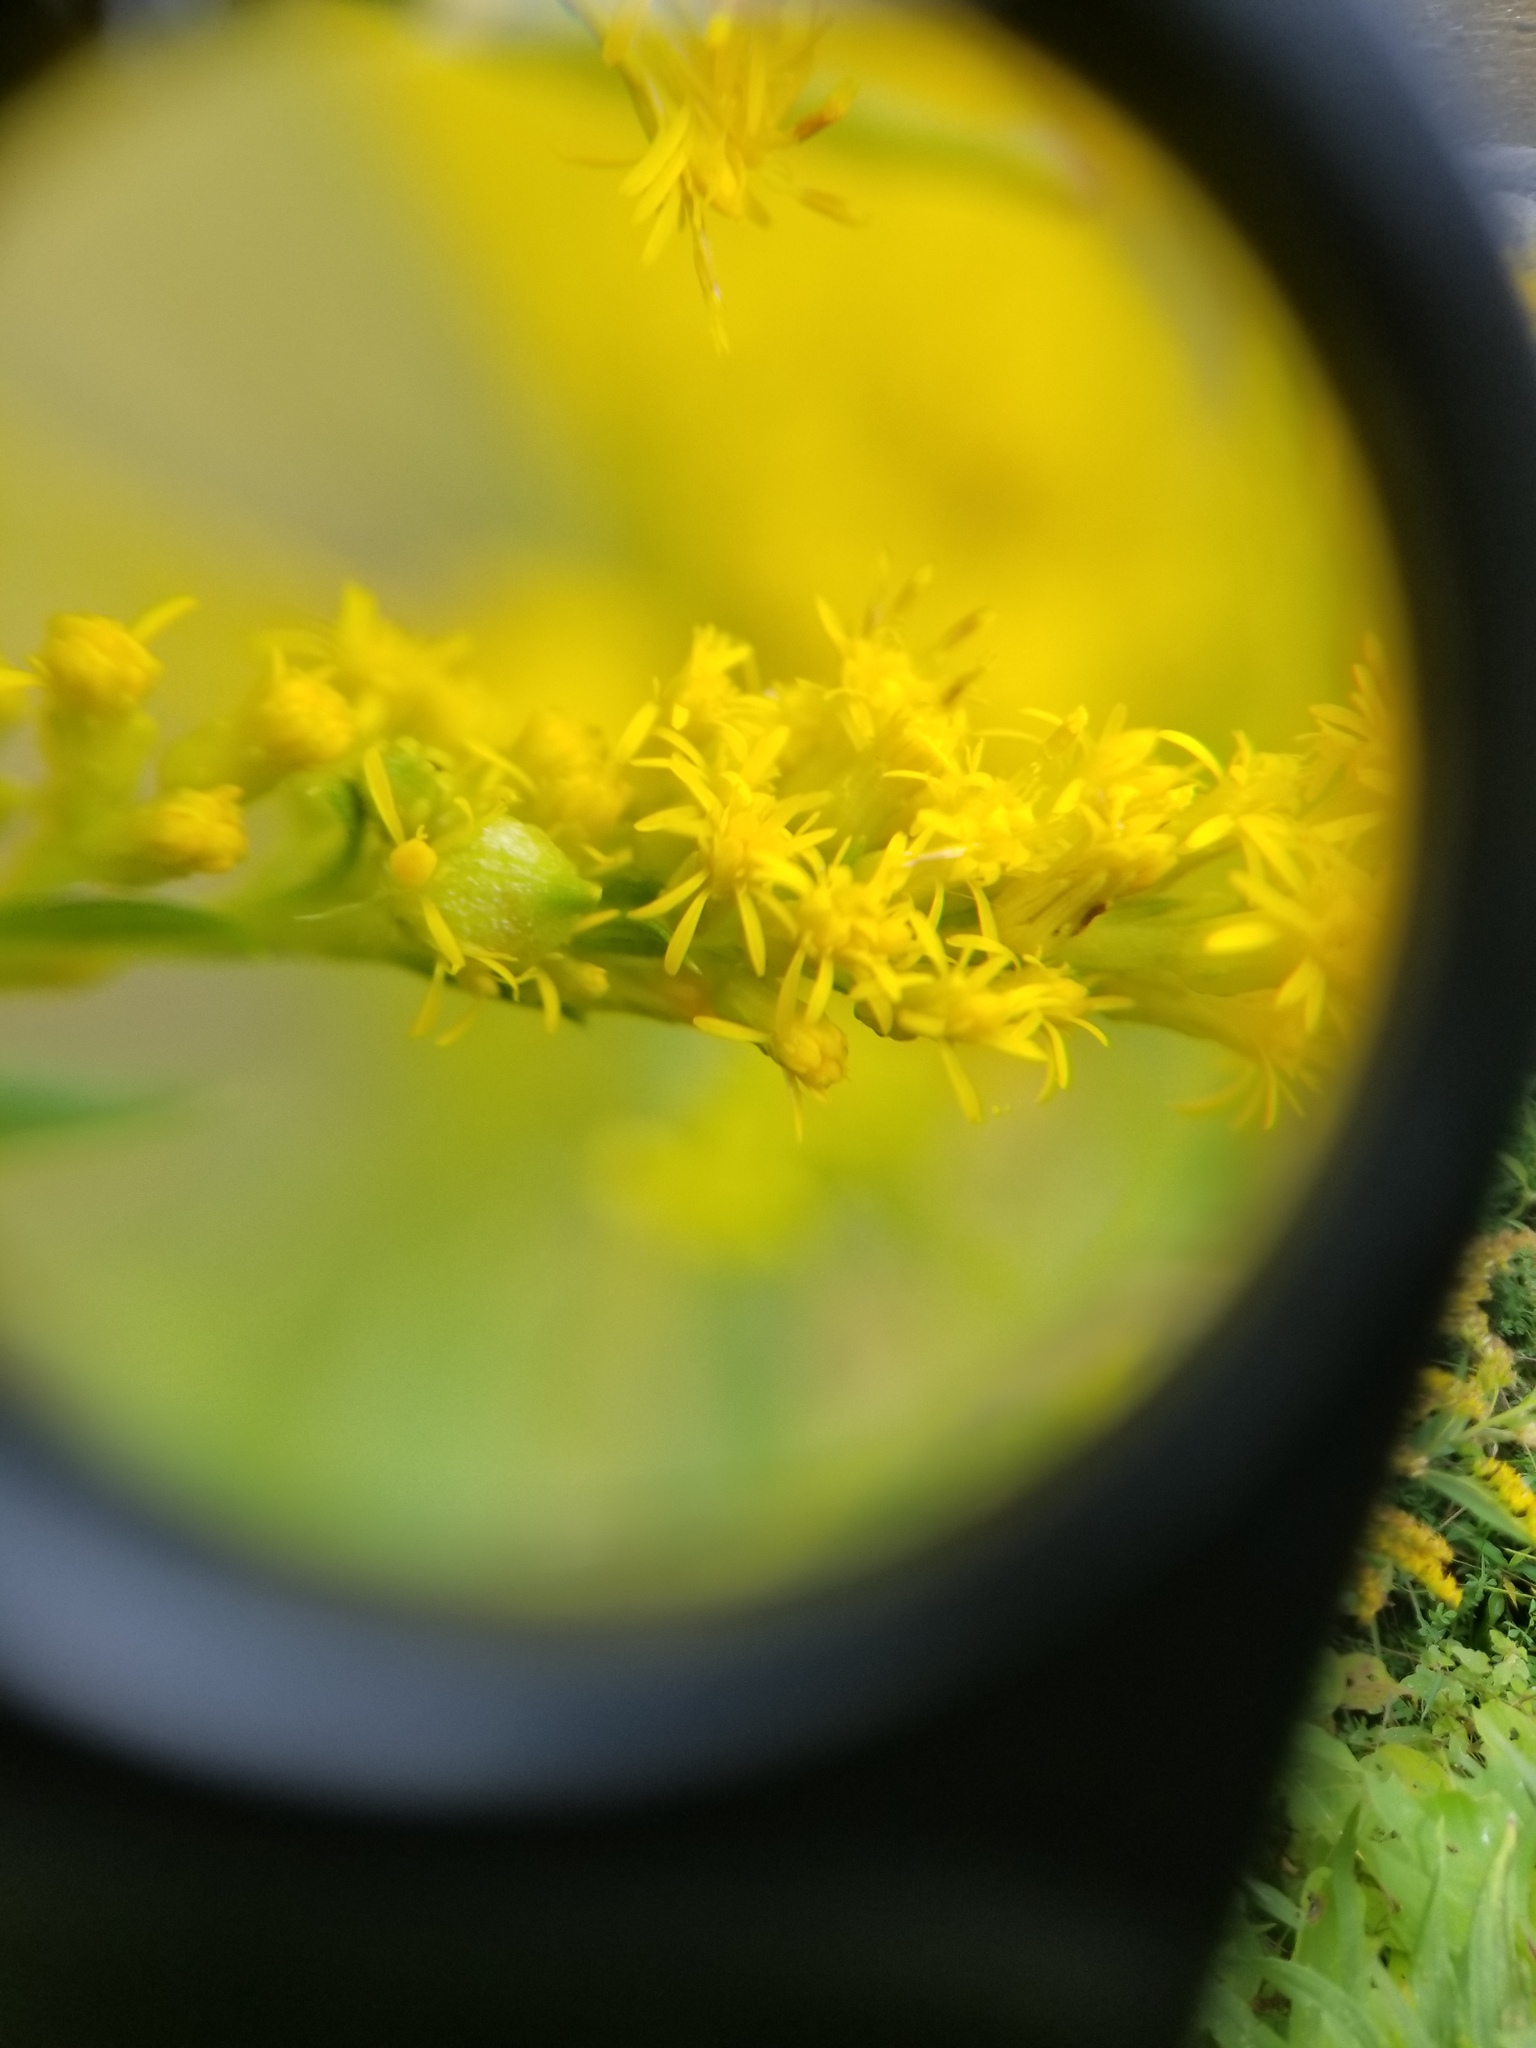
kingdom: Animalia
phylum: Arthropoda
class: Insecta
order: Diptera
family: Cecidomyiidae
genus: Schizomyia
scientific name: Schizomyia racemicola
